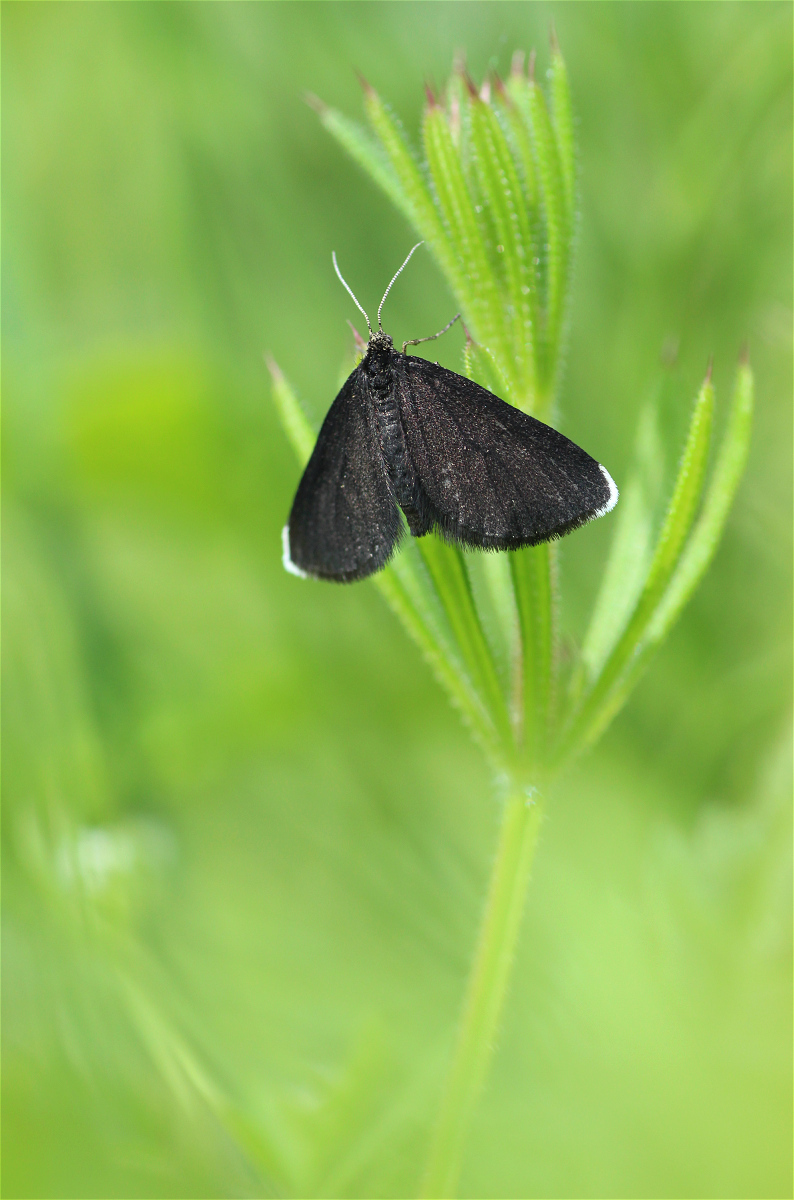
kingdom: Animalia
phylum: Arthropoda
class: Insecta
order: Lepidoptera
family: Geometridae
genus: Odezia
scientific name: Odezia atrata
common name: Chimney sweeper
